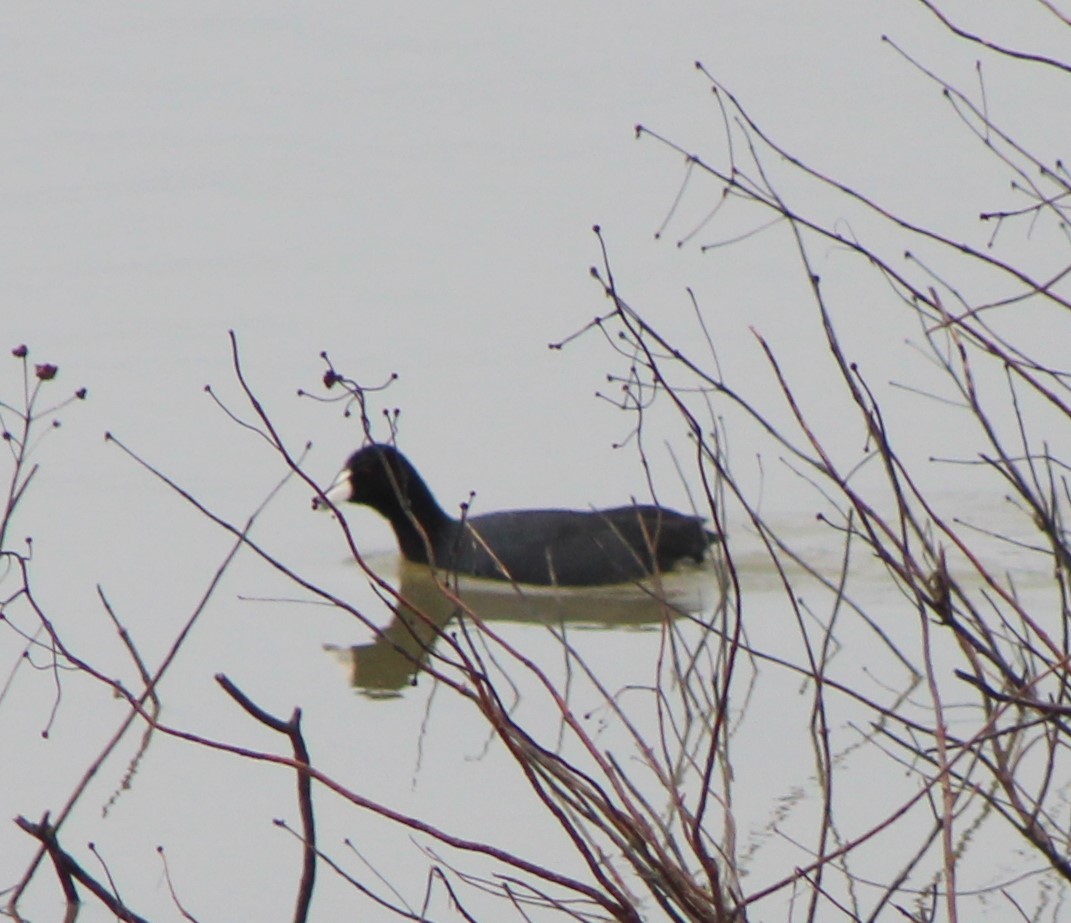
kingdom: Animalia
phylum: Chordata
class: Aves
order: Gruiformes
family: Rallidae
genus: Fulica
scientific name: Fulica americana
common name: American coot
